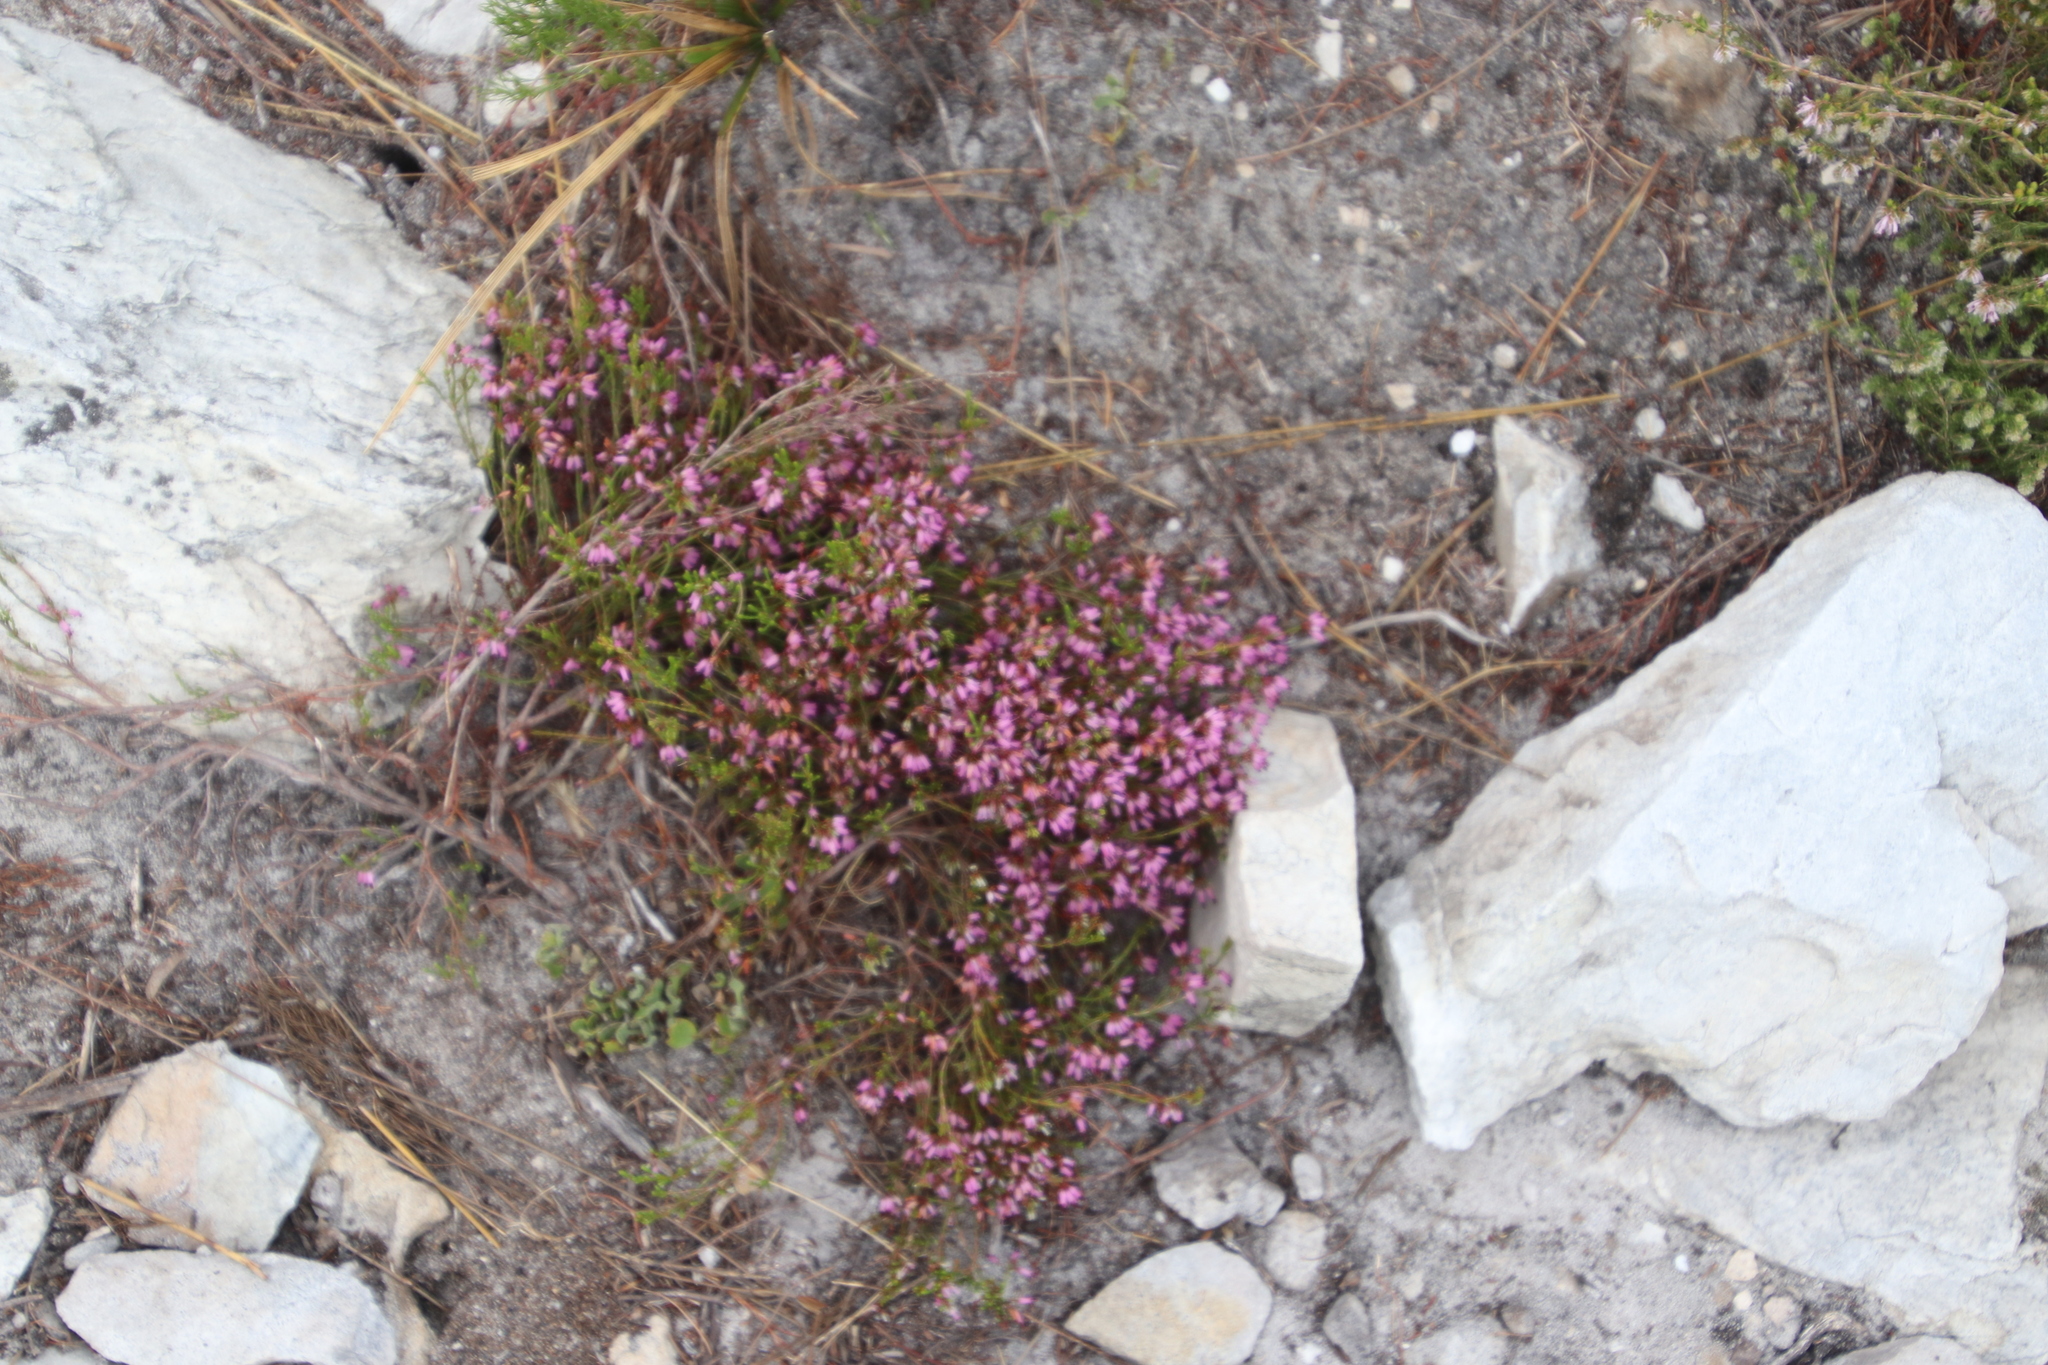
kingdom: Plantae
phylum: Tracheophyta
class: Magnoliopsida
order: Ericales
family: Ericaceae
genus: Erica
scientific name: Erica equisetifolia
